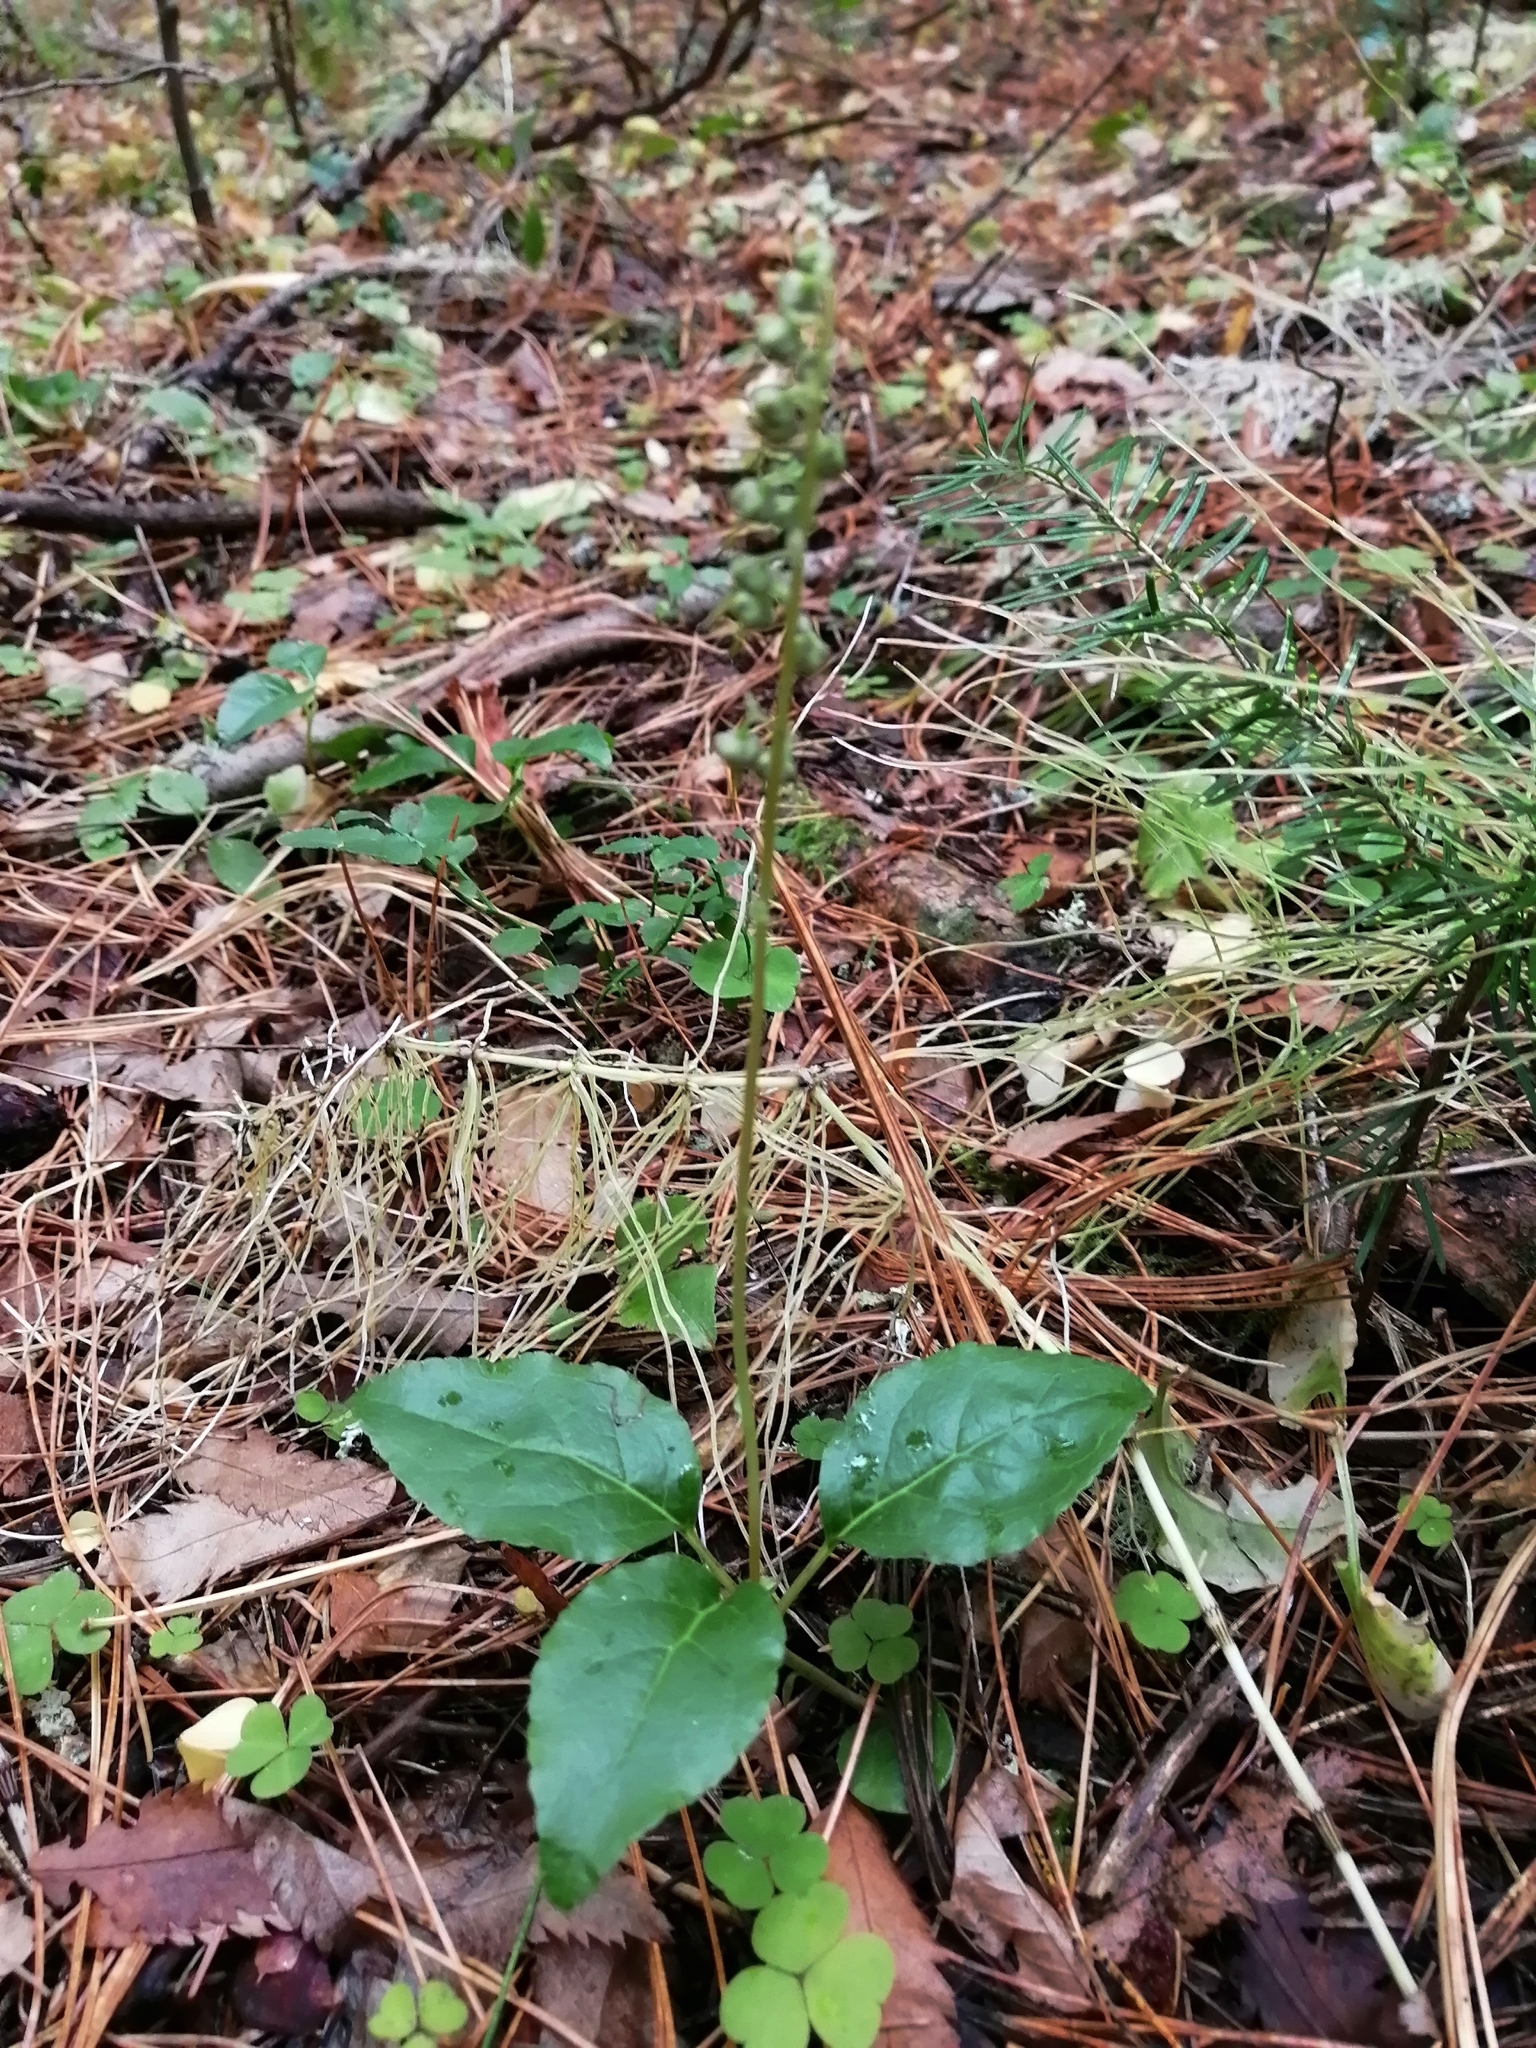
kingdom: Plantae
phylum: Tracheophyta
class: Magnoliopsida
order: Ericales
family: Ericaceae
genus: Orthilia
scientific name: Orthilia secunda
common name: One-sided orthilia
